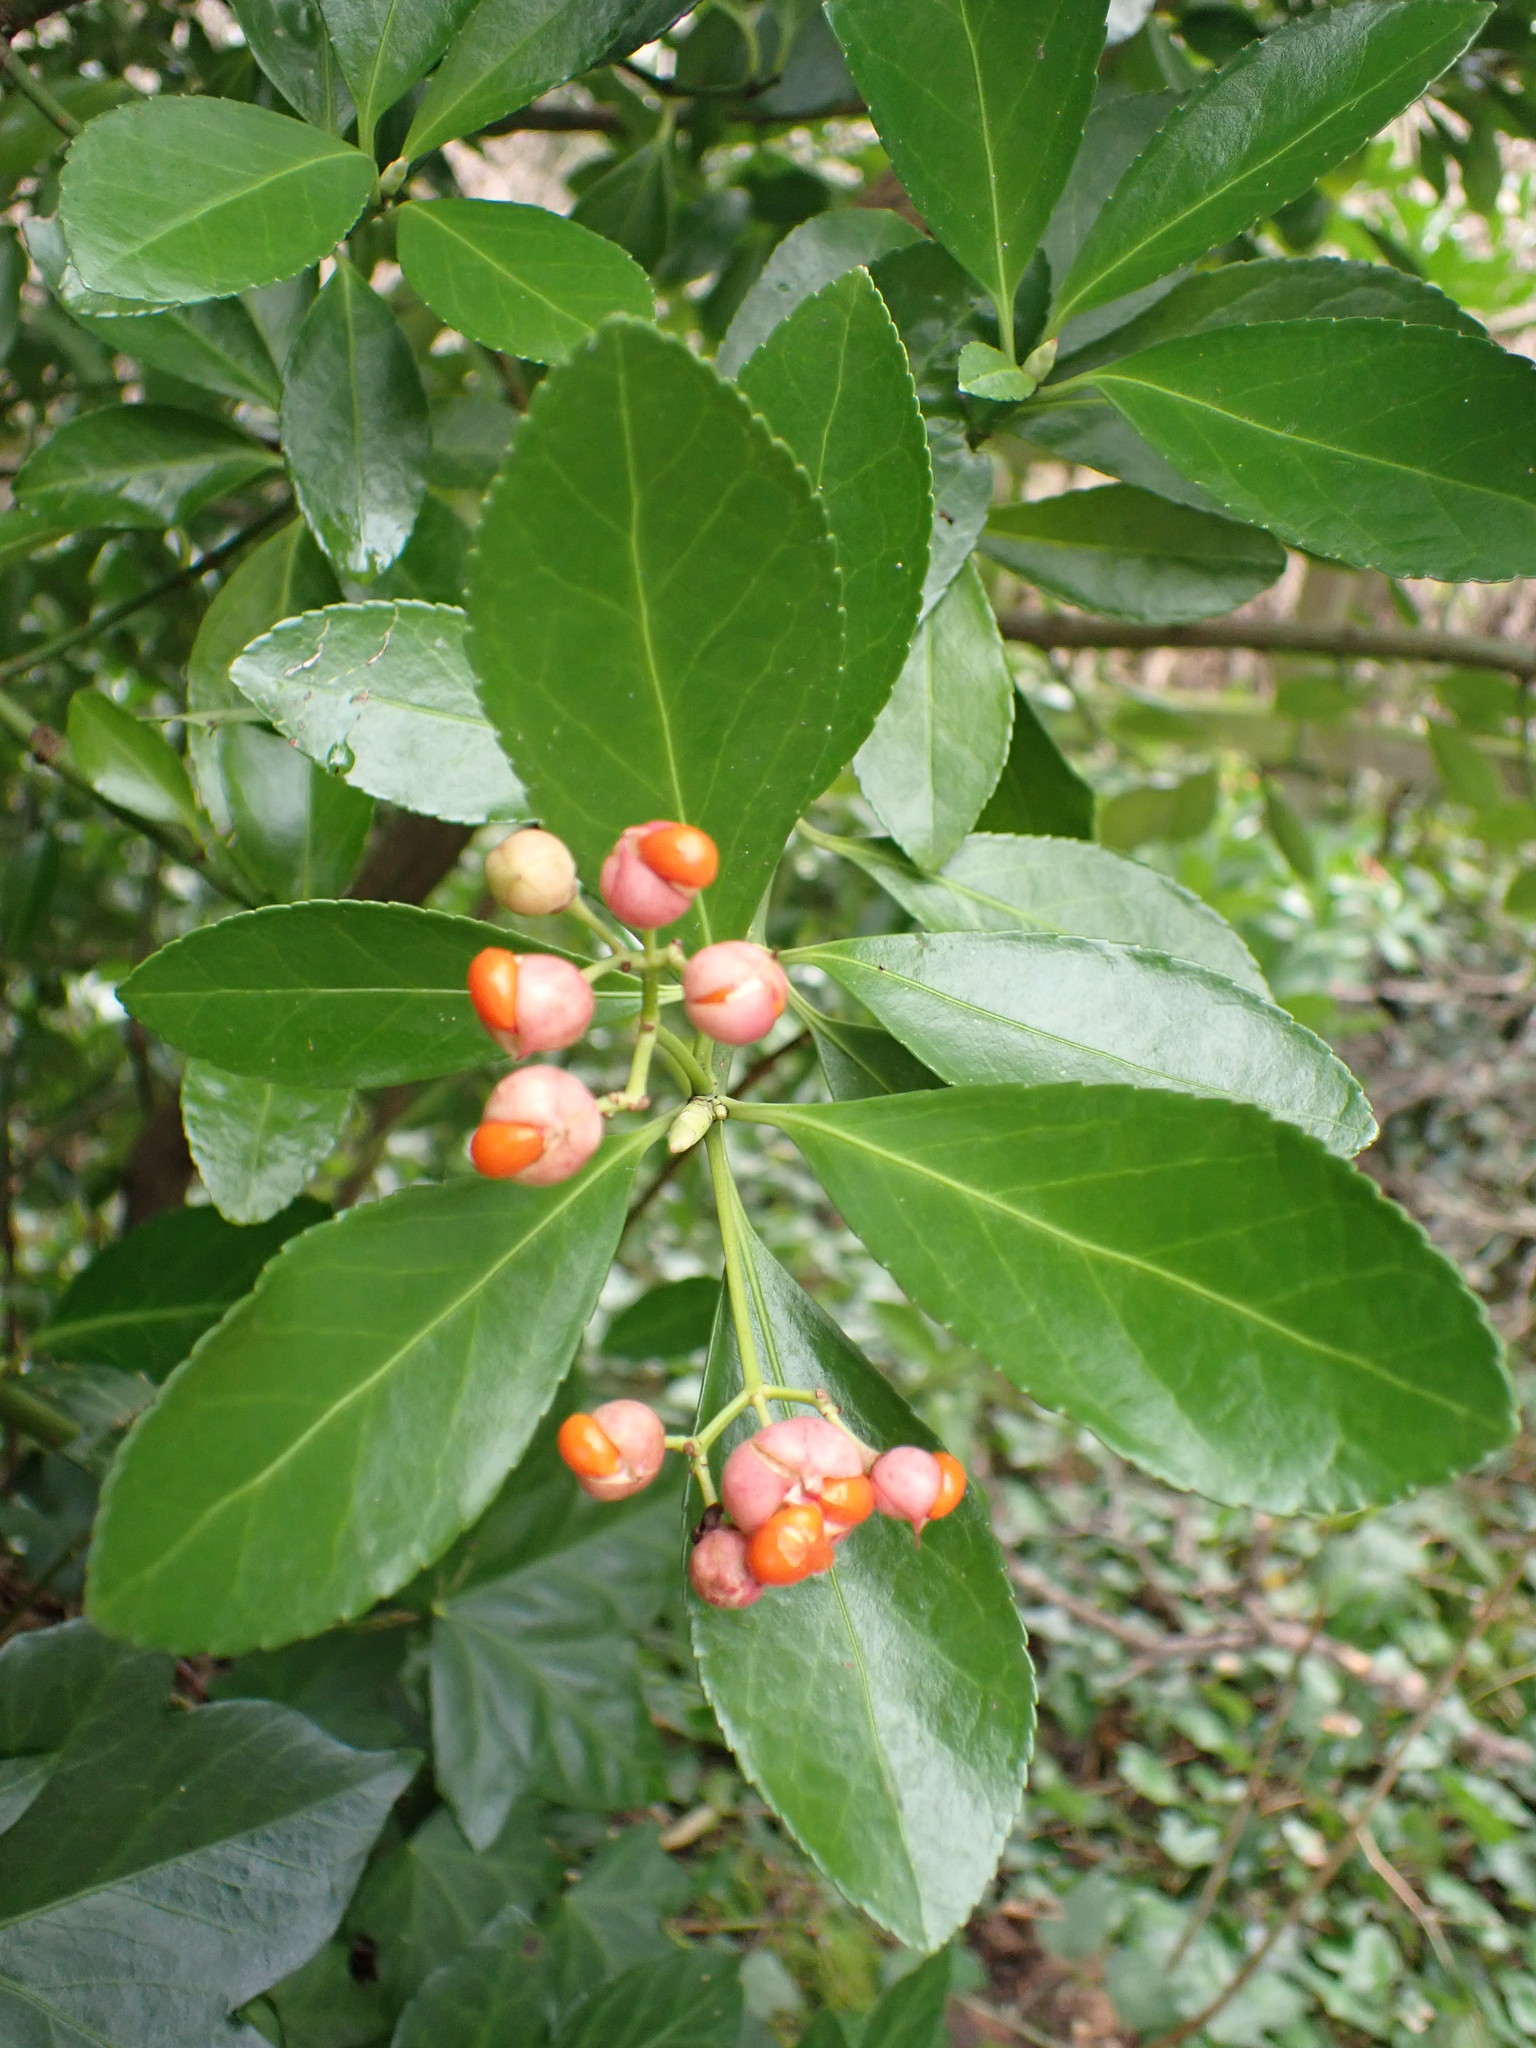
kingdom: Plantae
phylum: Tracheophyta
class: Magnoliopsida
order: Celastrales
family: Celastraceae
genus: Euonymus
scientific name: Euonymus japonicus
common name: Japanese spindletree
